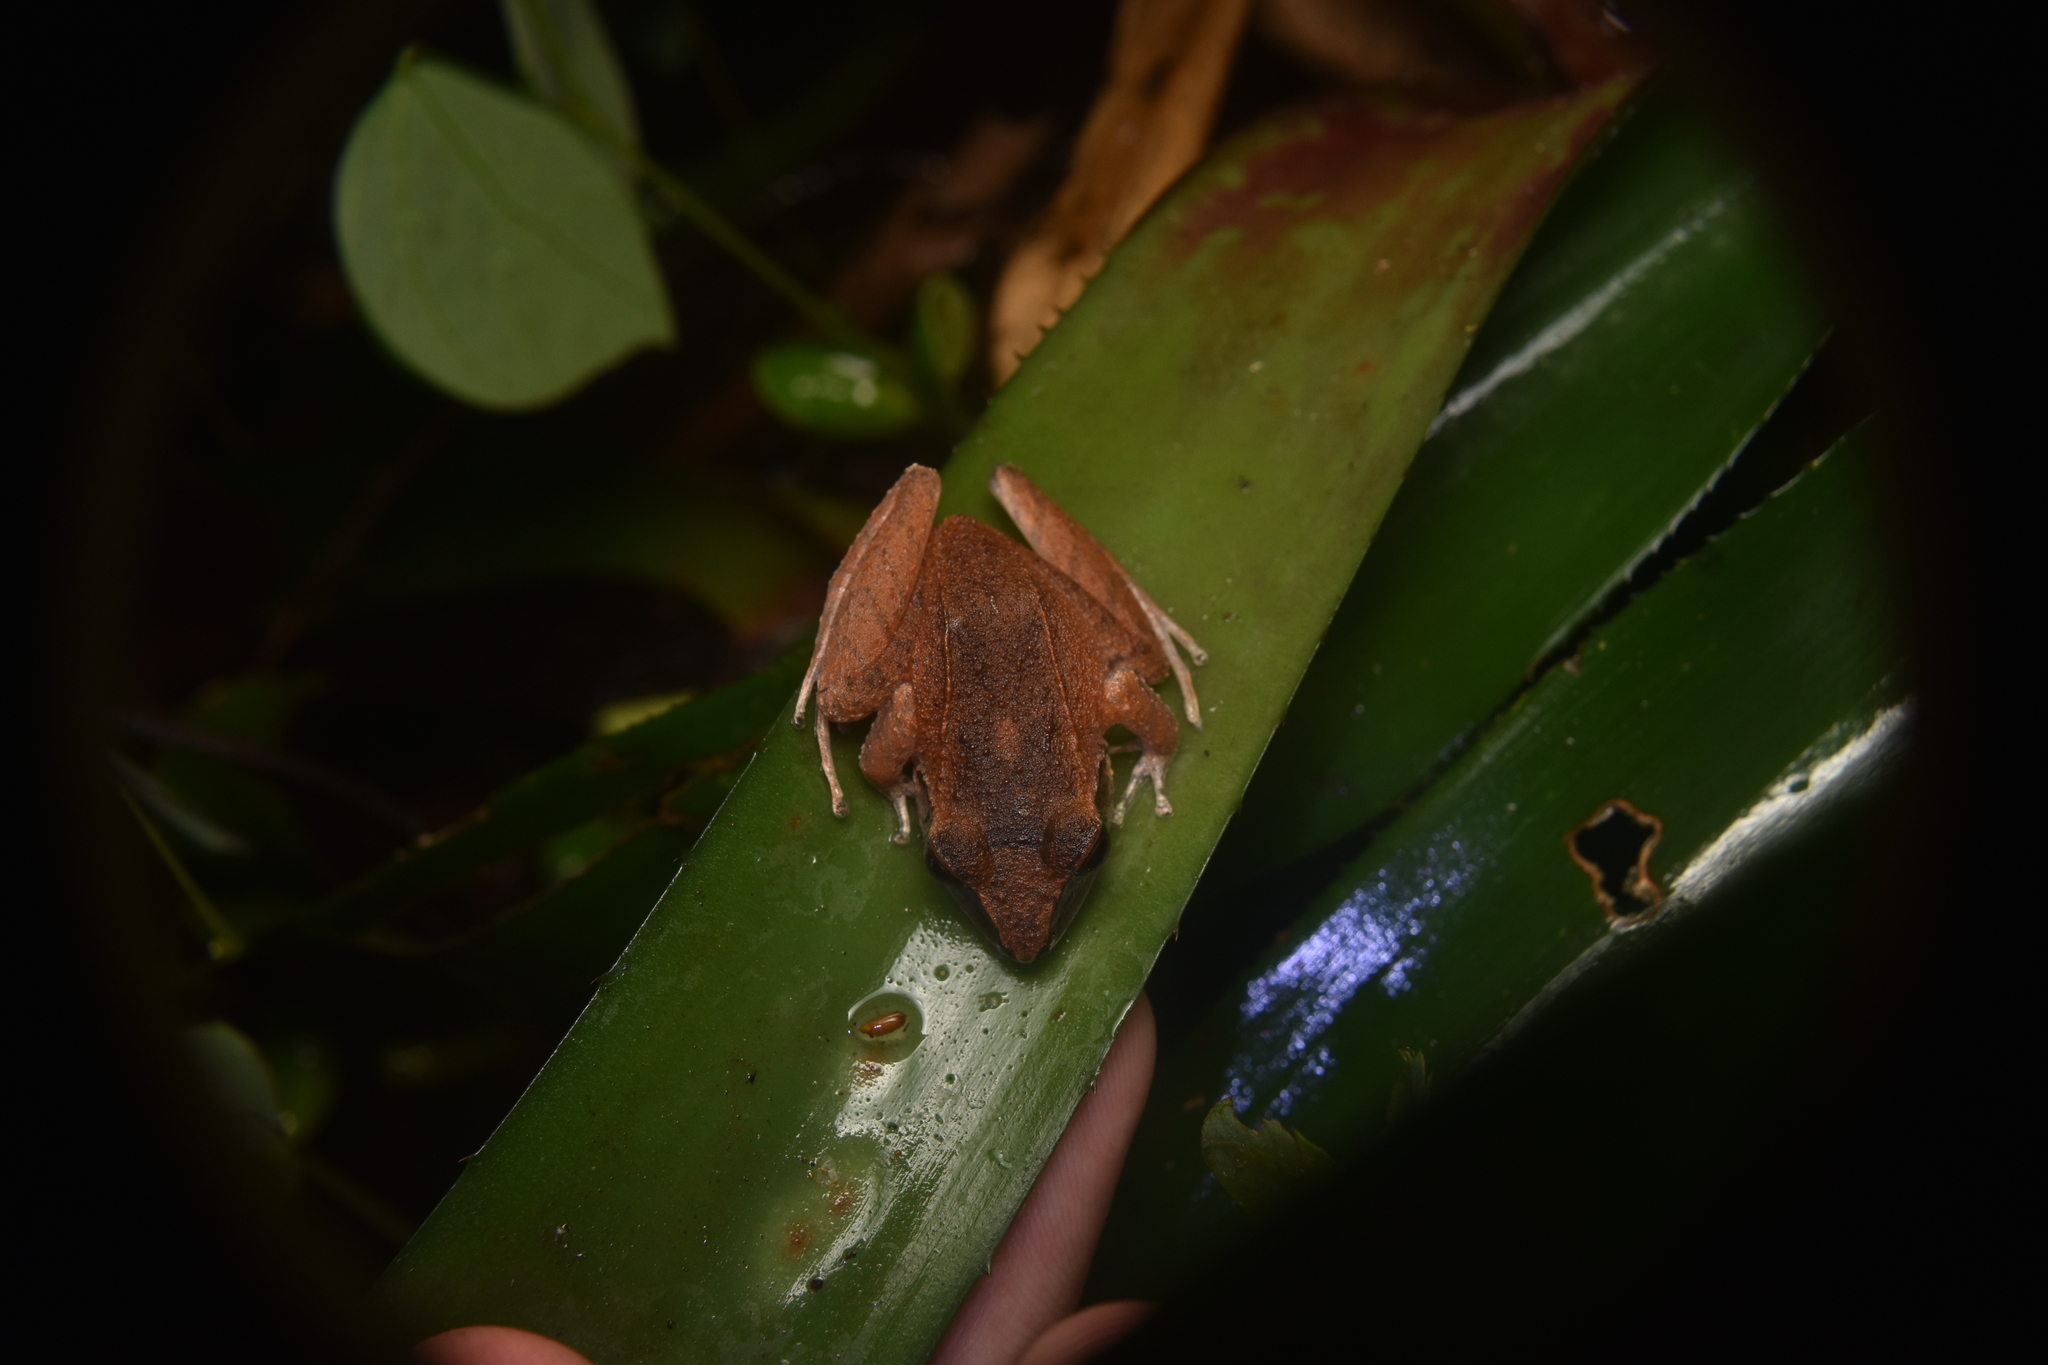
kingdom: Animalia
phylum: Chordata
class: Amphibia
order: Anura
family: Craugastoridae
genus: Pristimantis
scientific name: Pristimantis achatinus
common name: Cachabi robber frog
